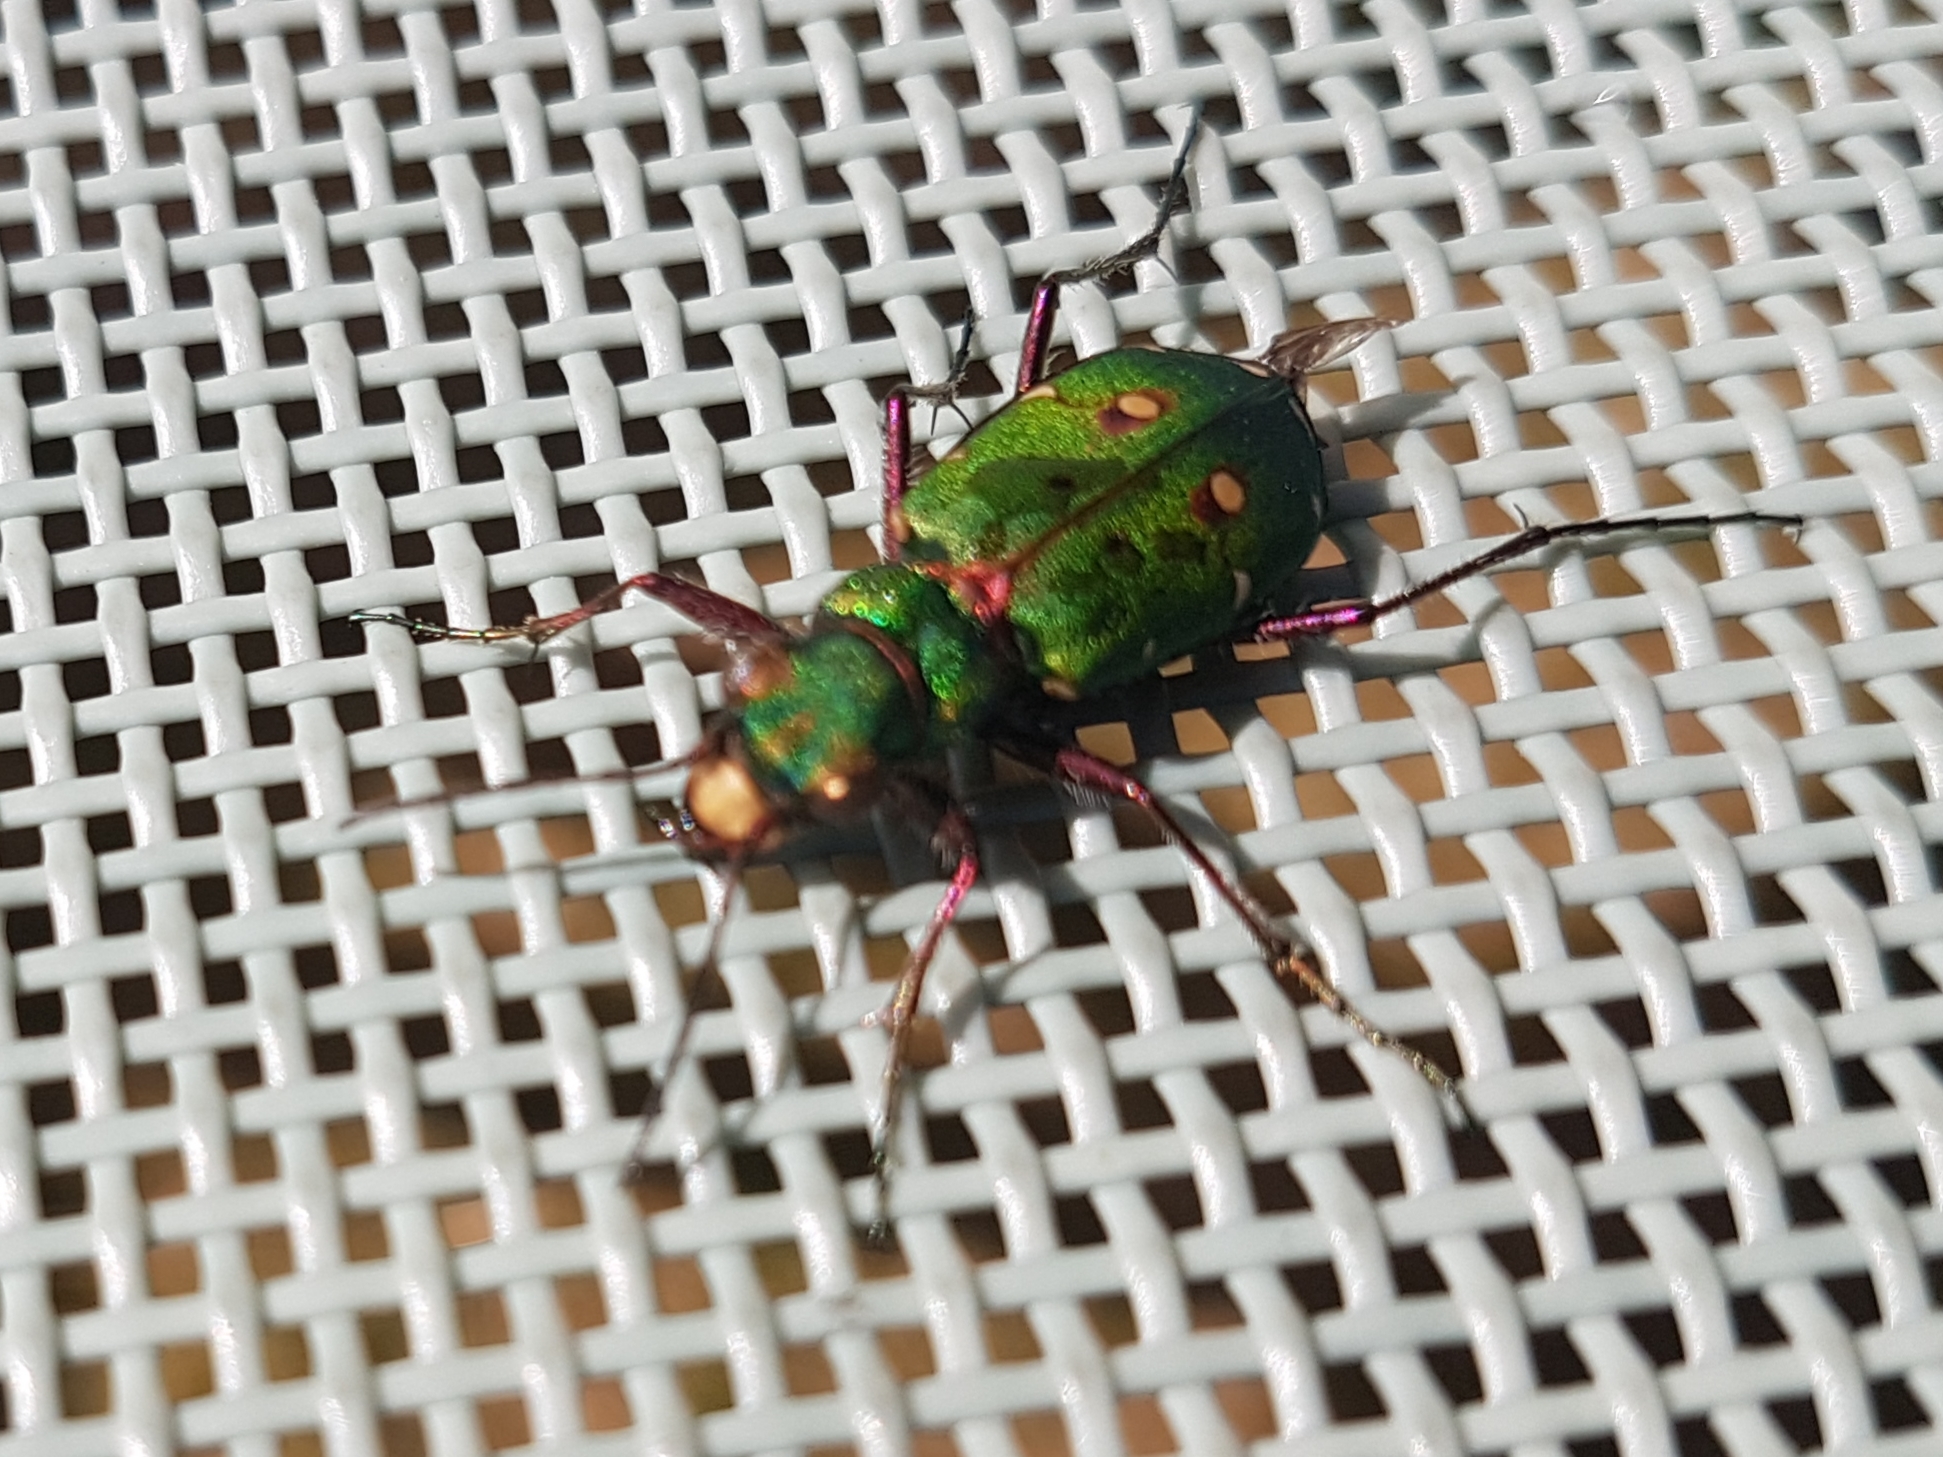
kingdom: Animalia
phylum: Arthropoda
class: Insecta
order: Coleoptera
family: Carabidae
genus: Cicindela
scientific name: Cicindela campestris
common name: Common tiger beetle
